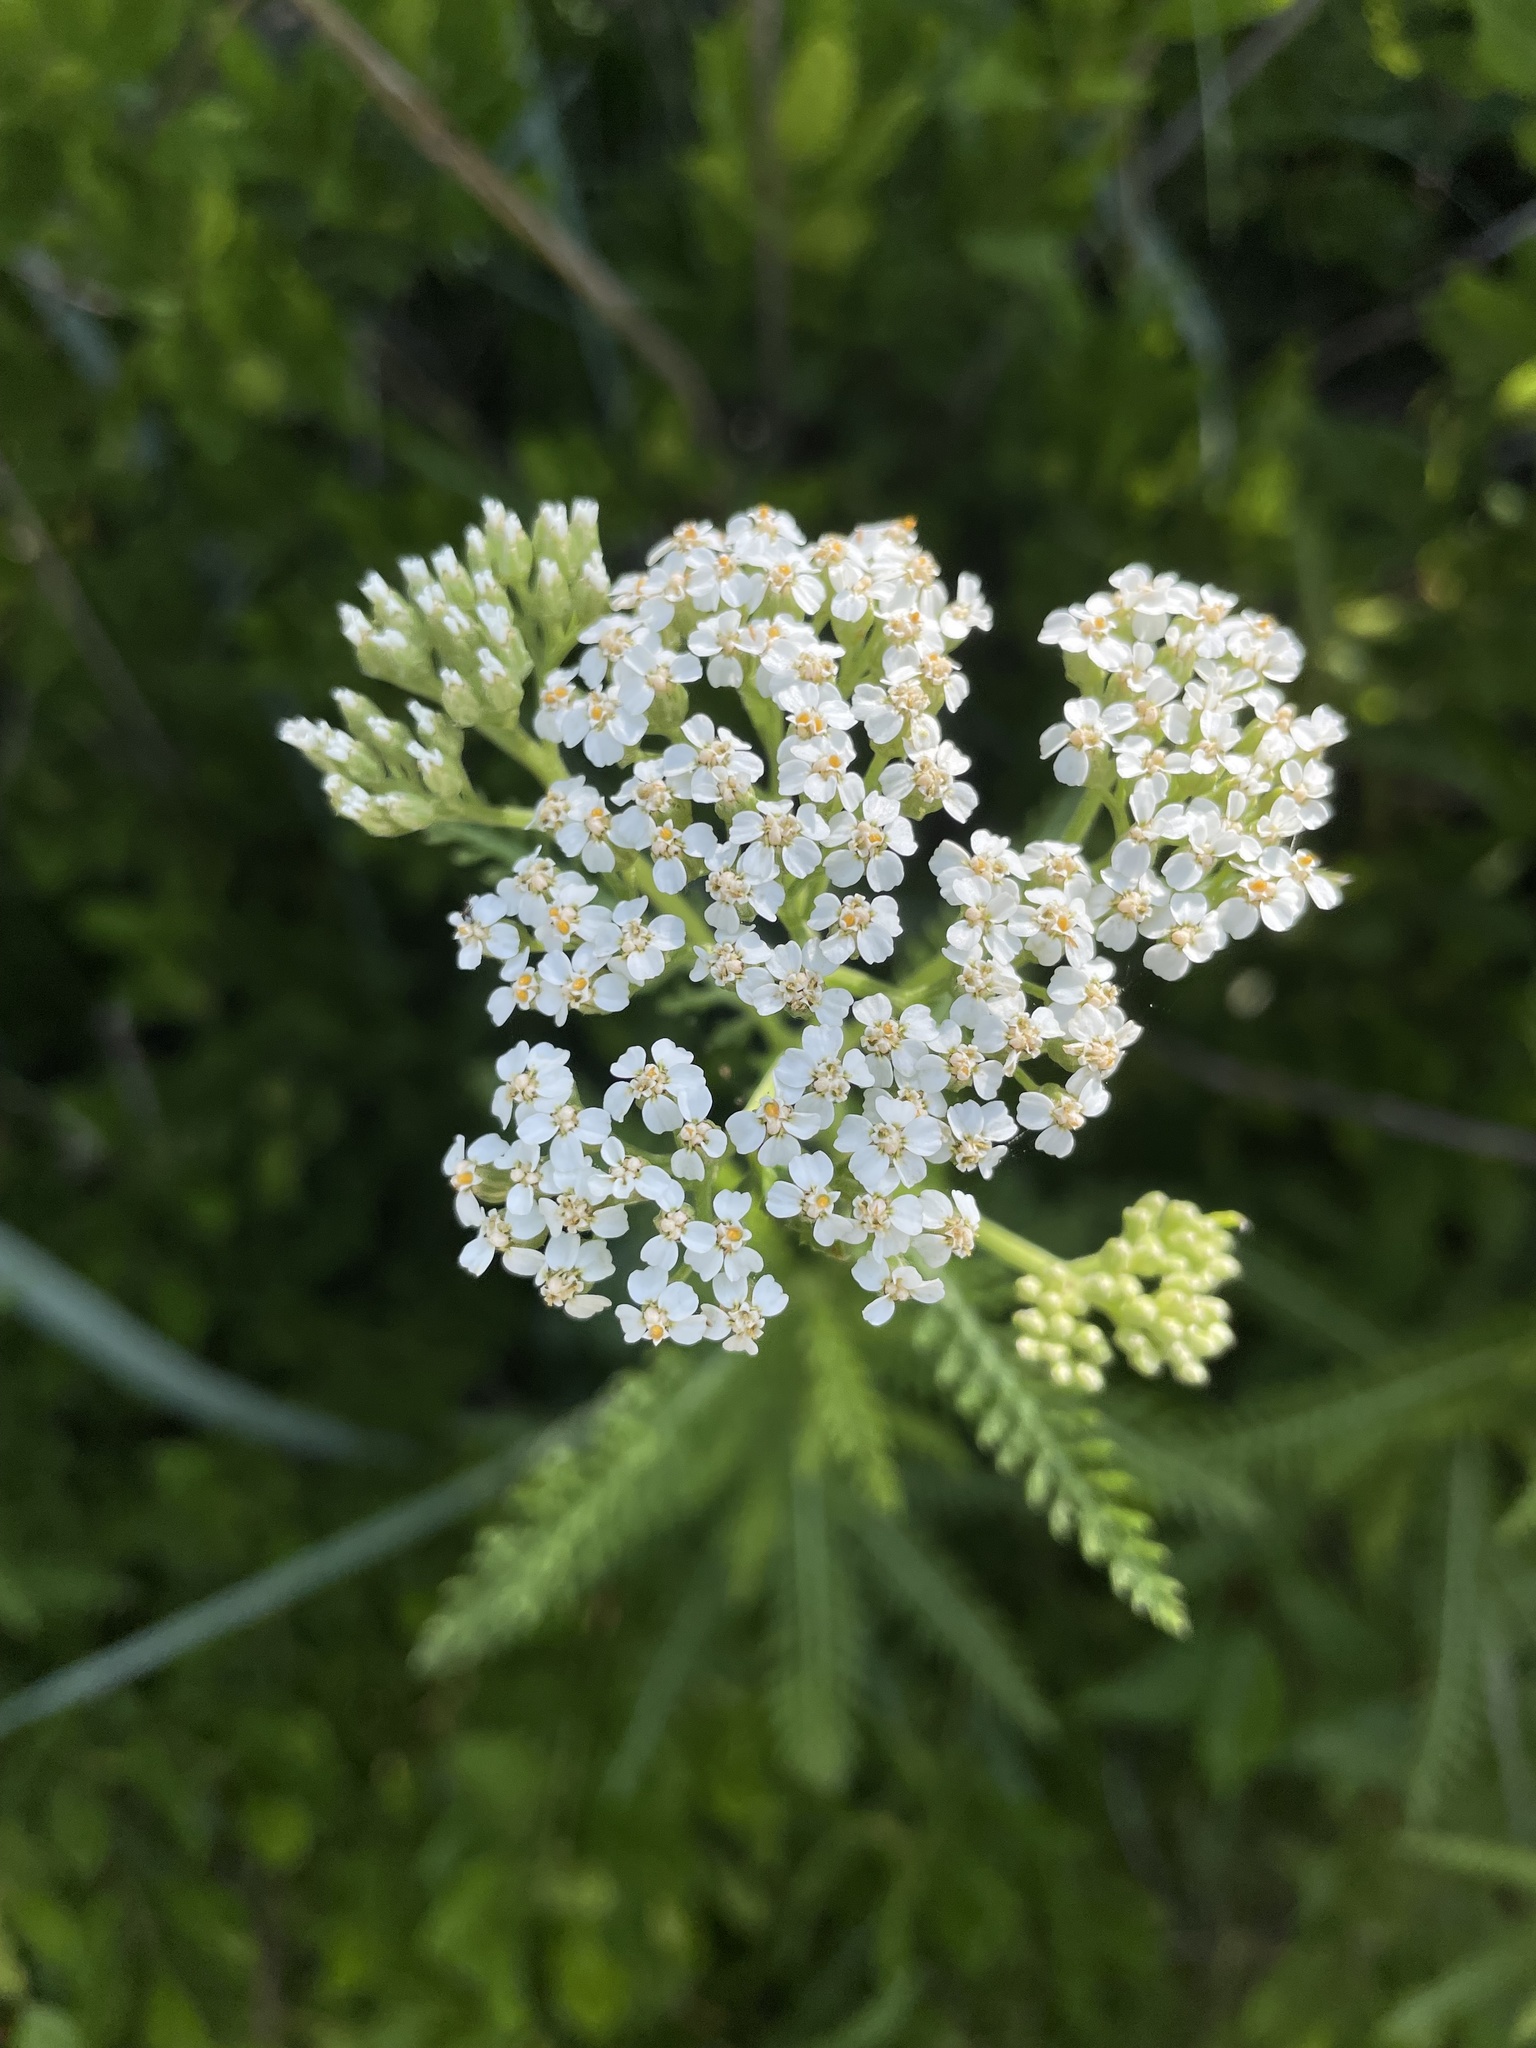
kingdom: Plantae
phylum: Tracheophyta
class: Magnoliopsida
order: Asterales
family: Asteraceae
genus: Achillea
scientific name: Achillea millefolium
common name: Yarrow
